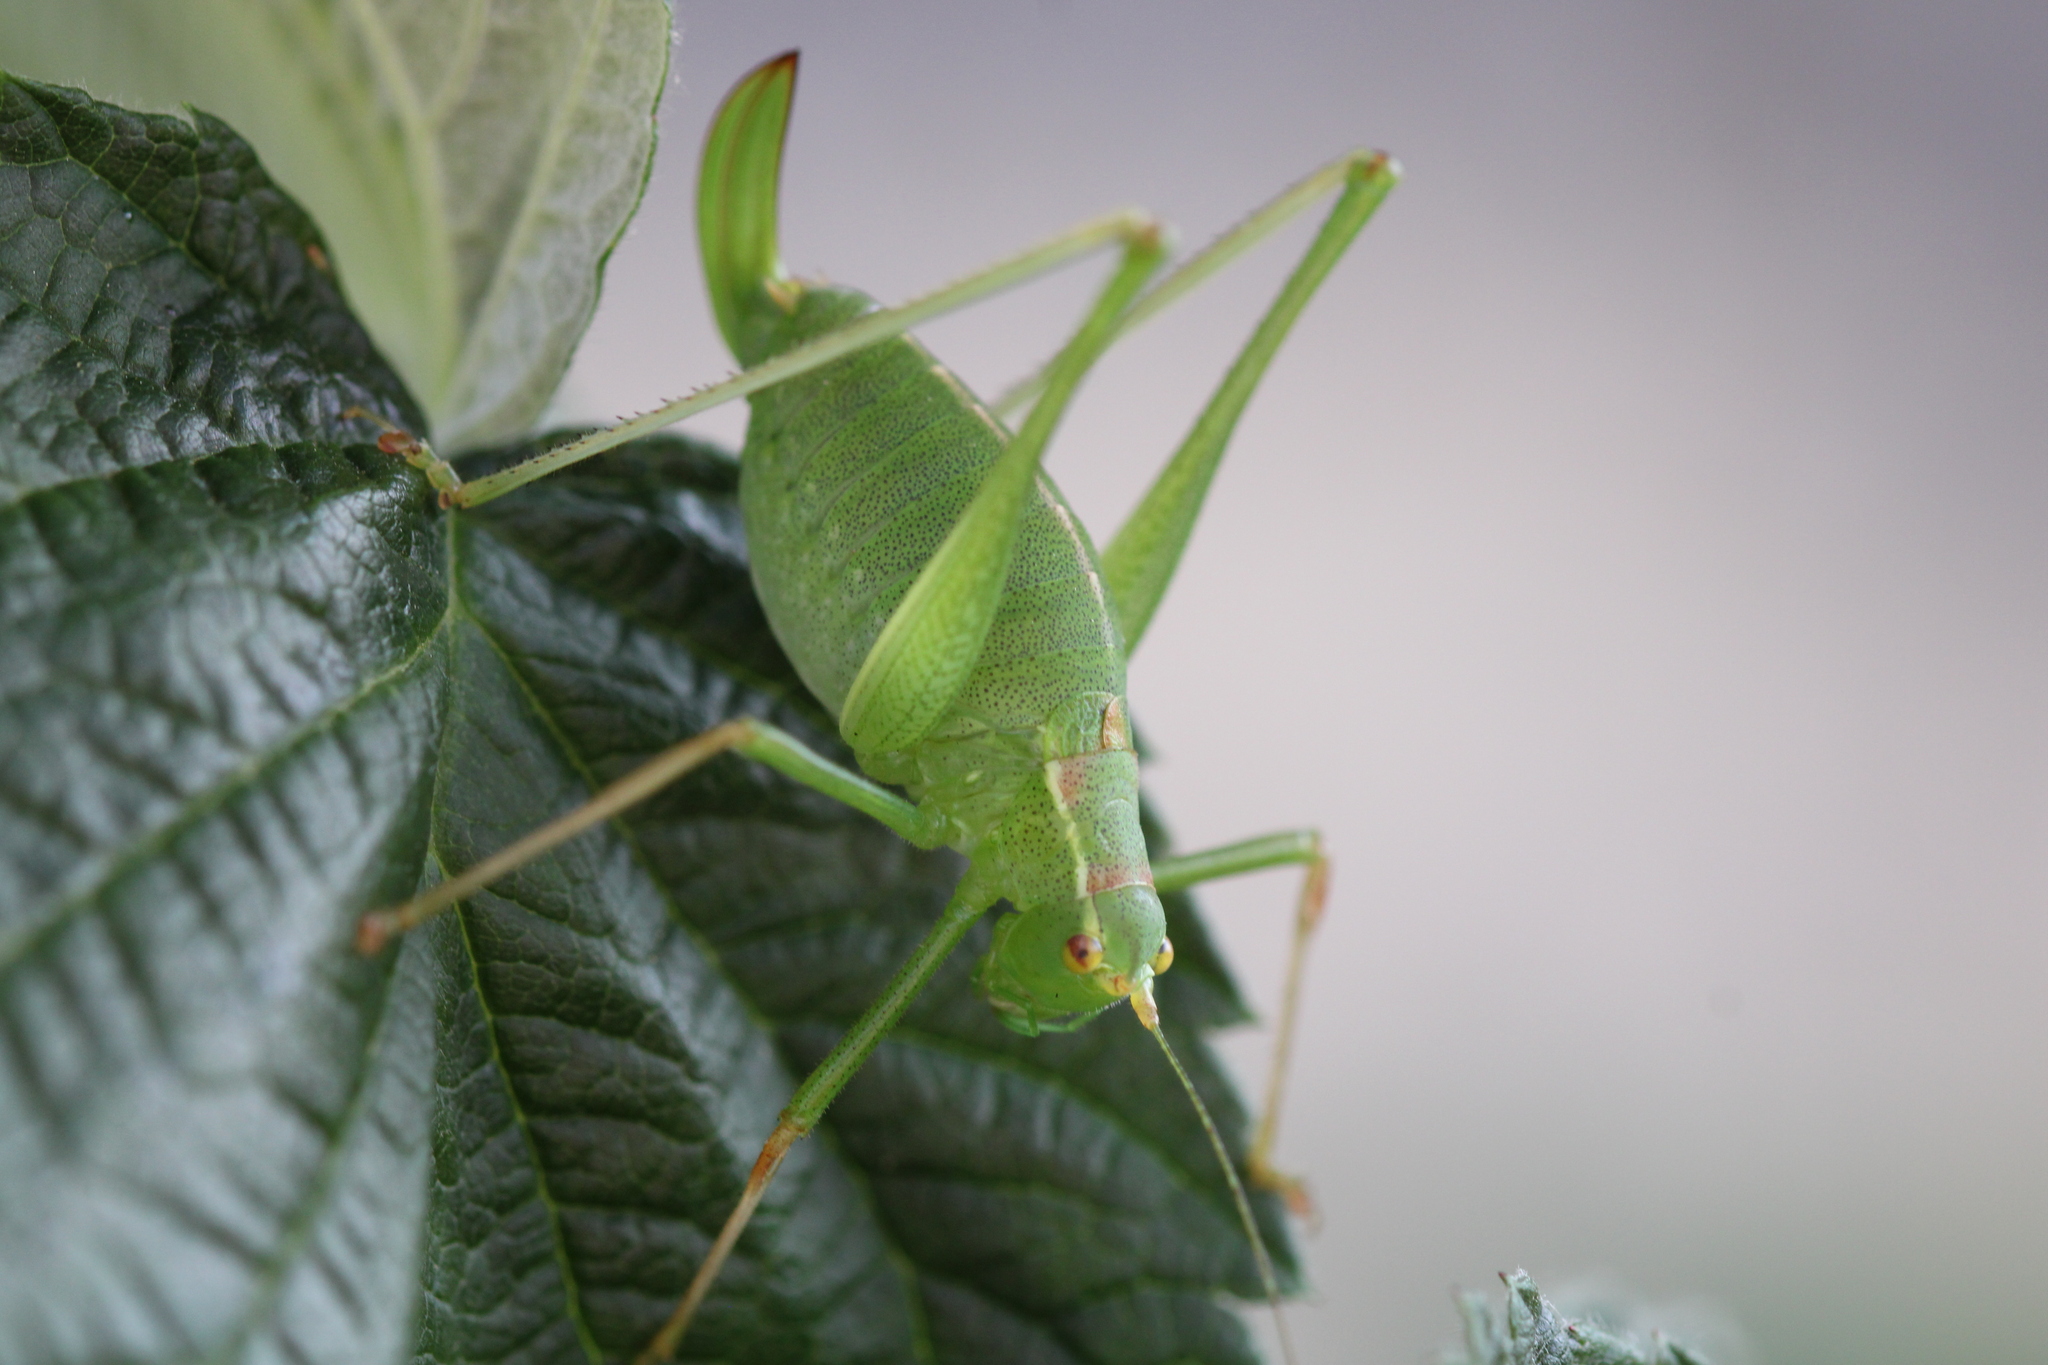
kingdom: Animalia
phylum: Arthropoda
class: Insecta
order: Orthoptera
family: Tettigoniidae
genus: Leptophyes
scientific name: Leptophyes punctatissima
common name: Speckled bush-cricket
